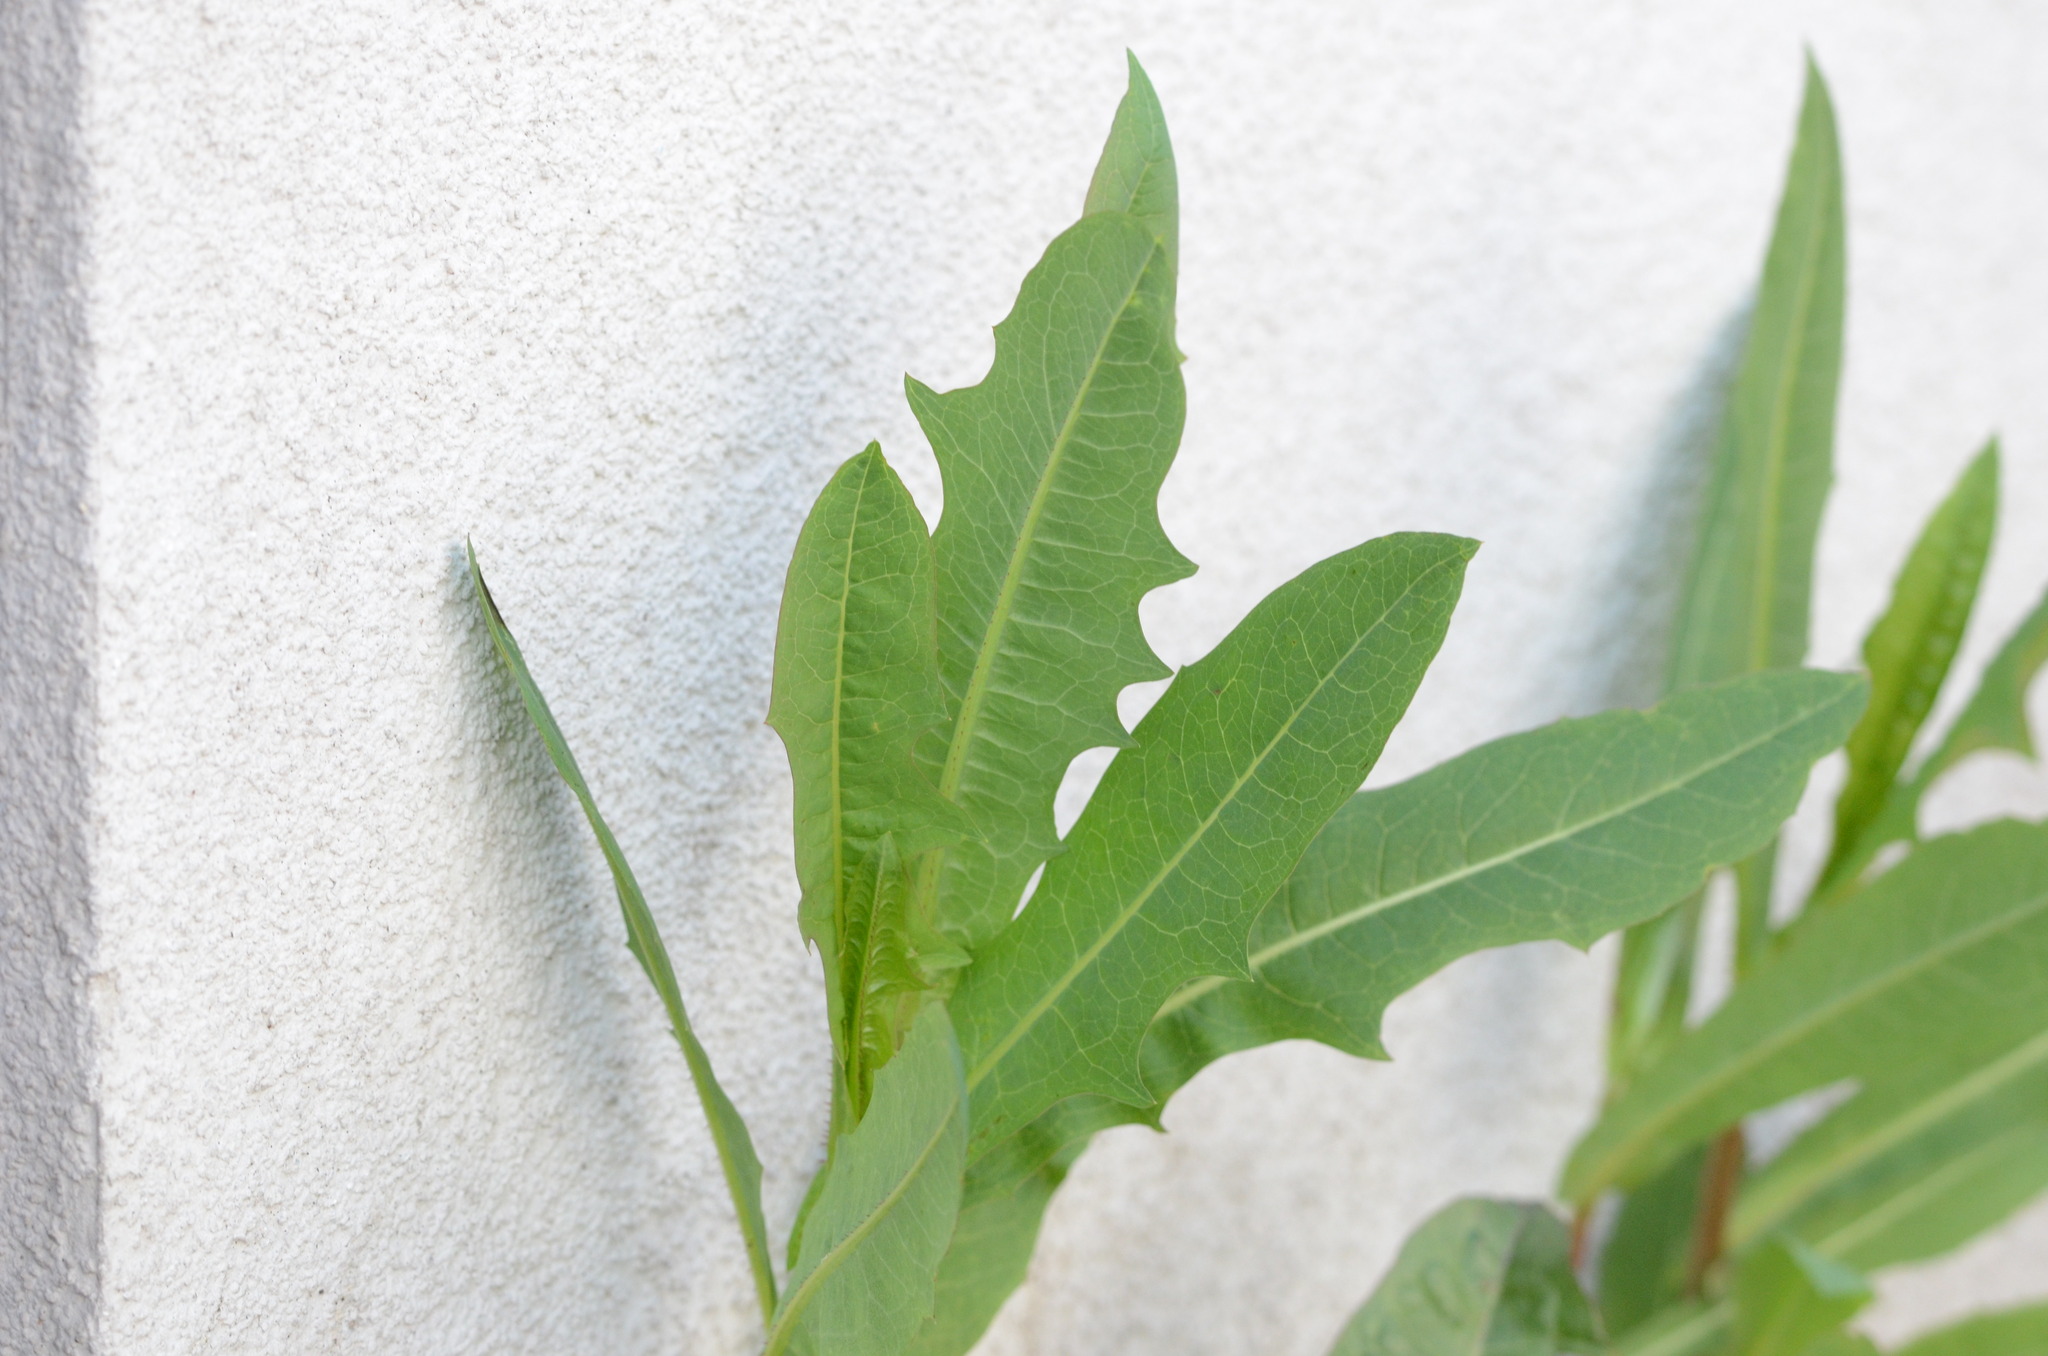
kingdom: Plantae
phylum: Tracheophyta
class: Magnoliopsida
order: Asterales
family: Asteraceae
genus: Lactuca
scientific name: Lactuca serriola
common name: Prickly lettuce
